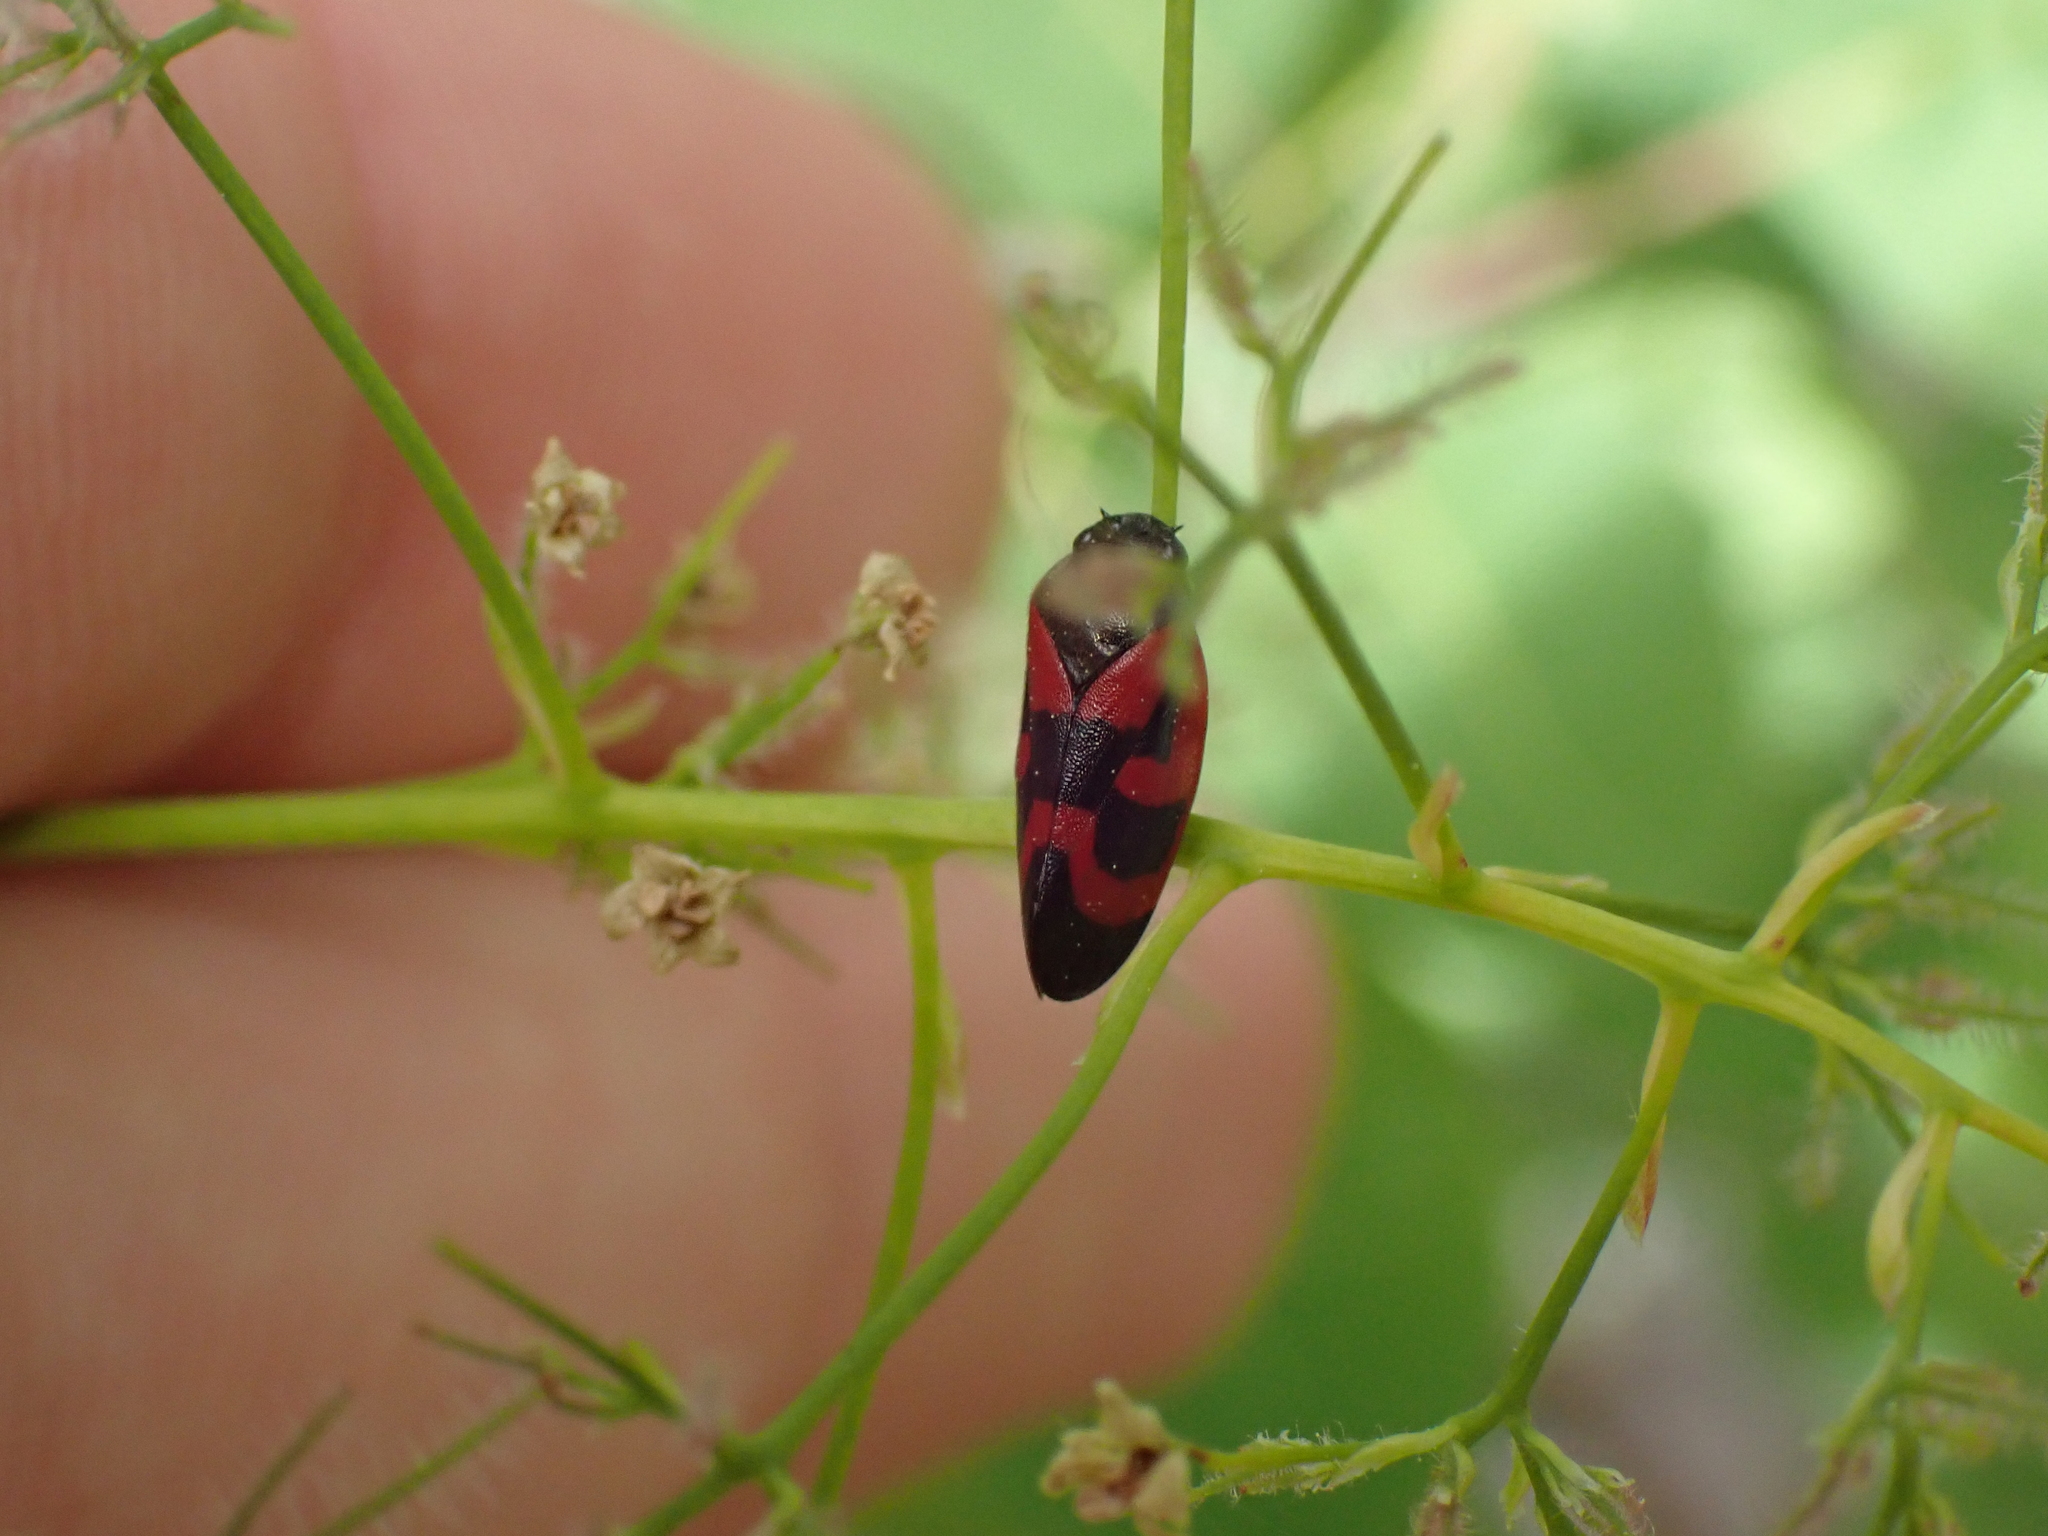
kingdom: Animalia
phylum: Arthropoda
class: Insecta
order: Hemiptera
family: Cercopidae
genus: Haematoloma
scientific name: Haematoloma dorsata
